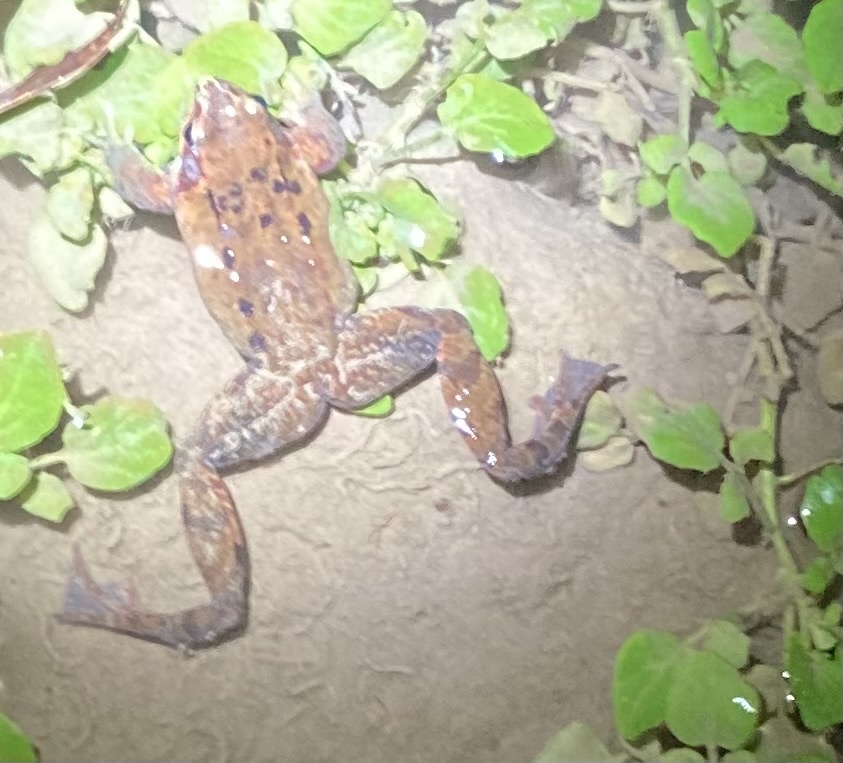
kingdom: Animalia
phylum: Chordata
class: Amphibia
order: Anura
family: Ranidae
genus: Rana
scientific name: Rana temporaria
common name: Common frog
